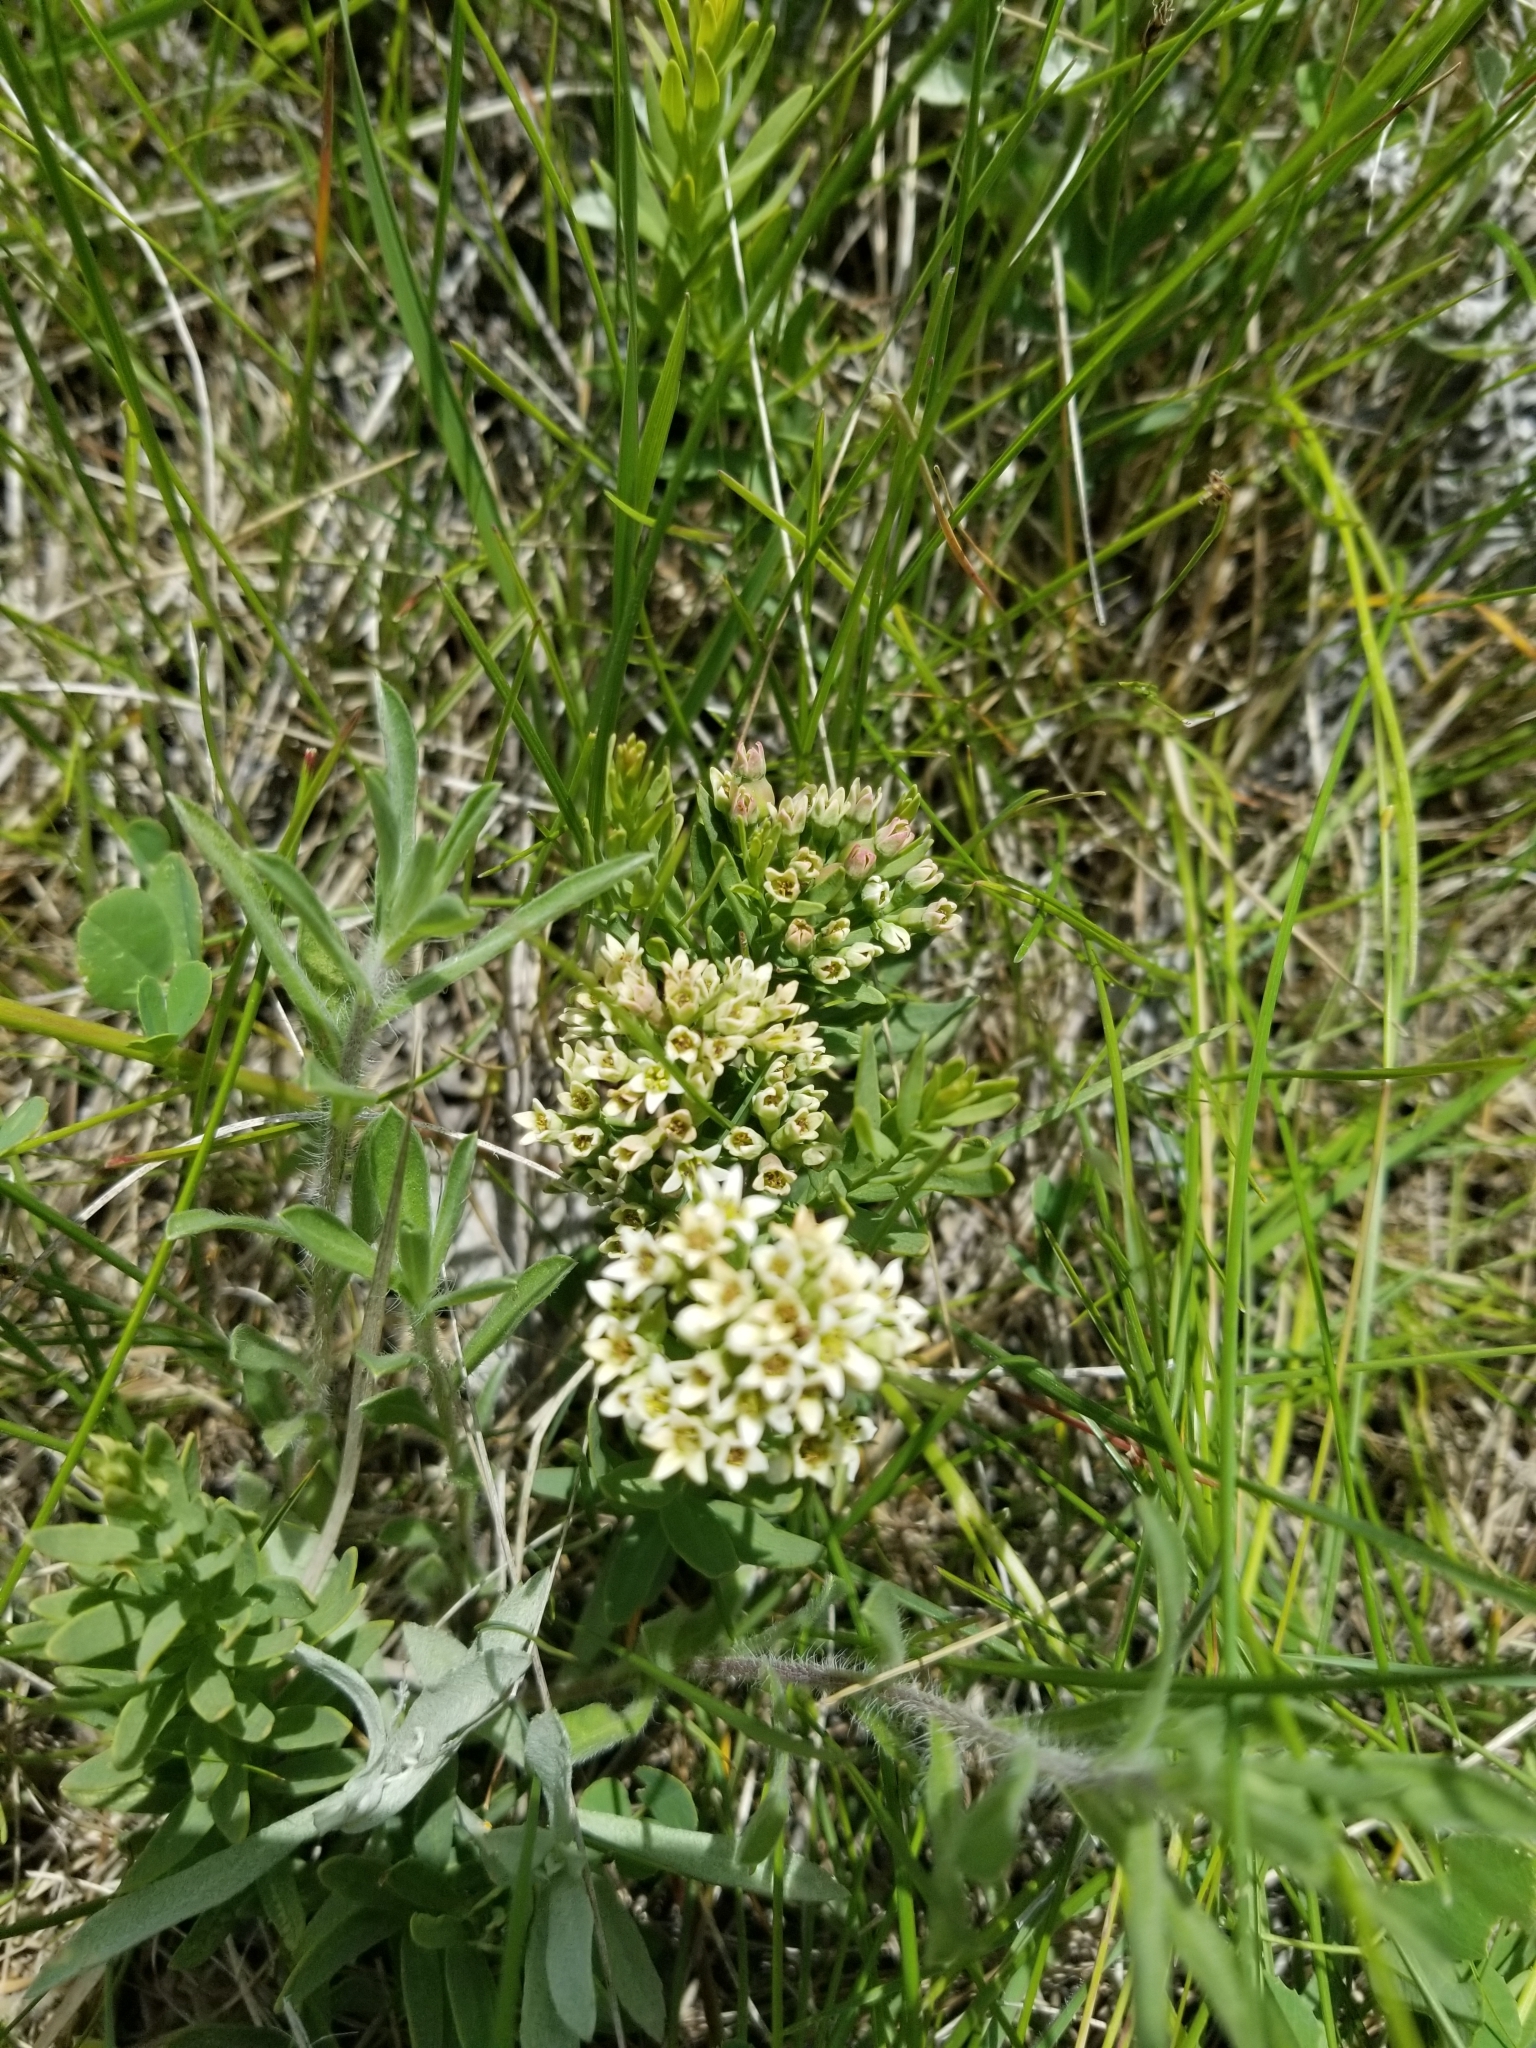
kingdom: Plantae
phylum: Tracheophyta
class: Magnoliopsida
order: Santalales
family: Comandraceae
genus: Comandra
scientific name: Comandra umbellata
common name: Bastard toadflax
